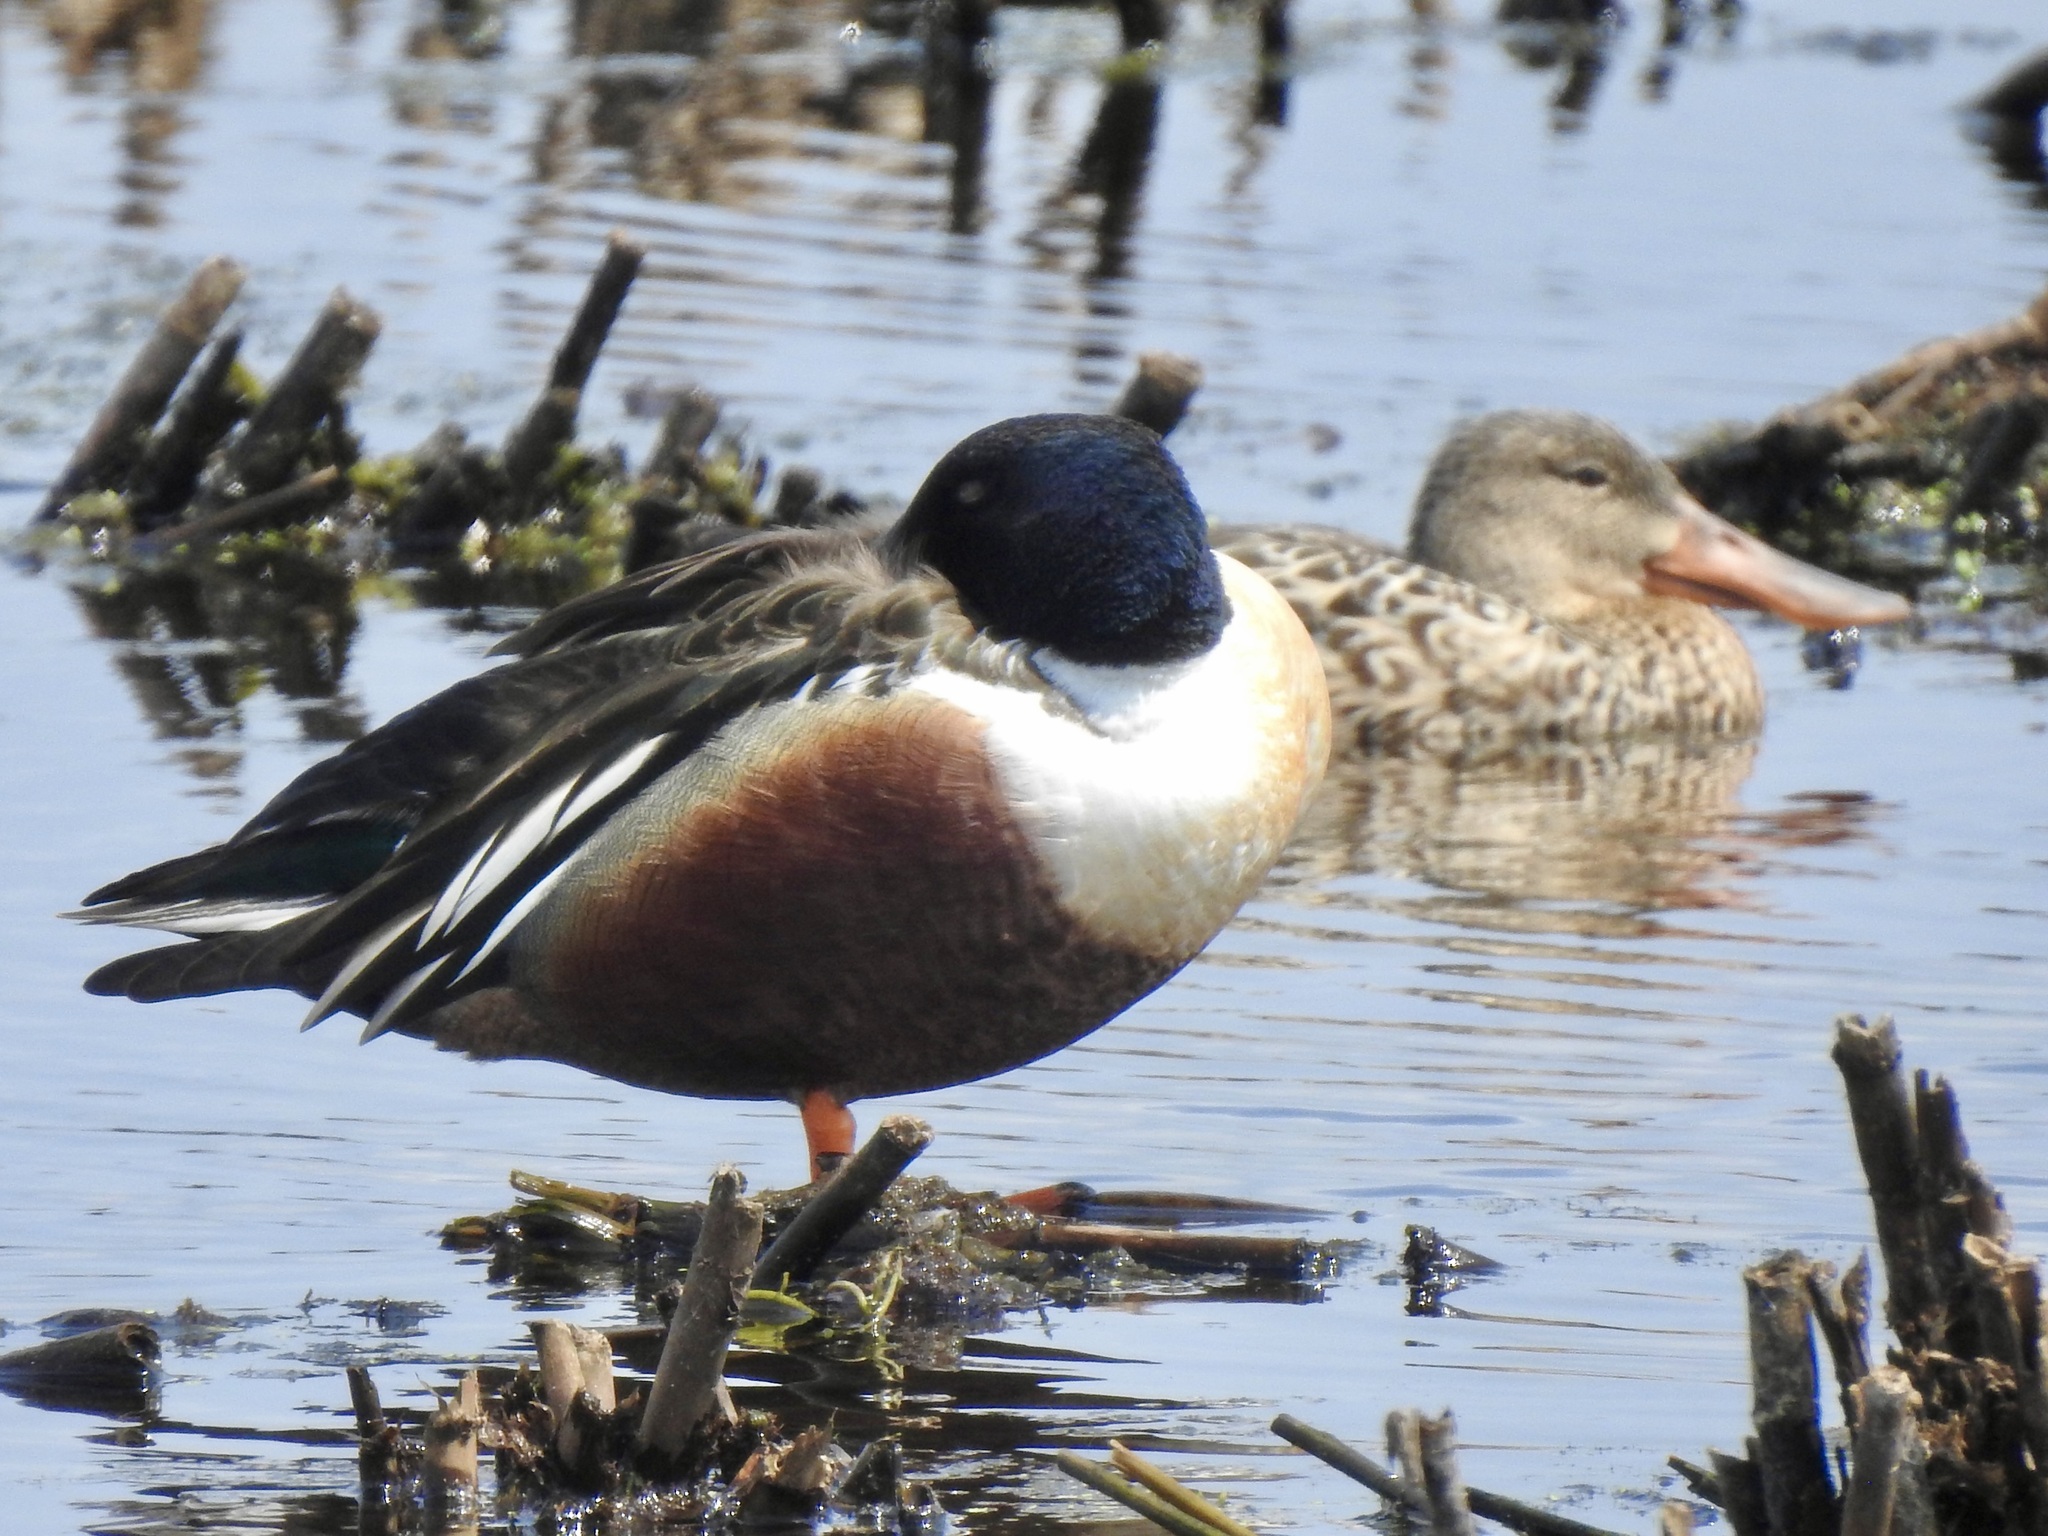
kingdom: Animalia
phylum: Chordata
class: Aves
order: Anseriformes
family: Anatidae
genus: Spatula
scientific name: Spatula clypeata
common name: Northern shoveler
